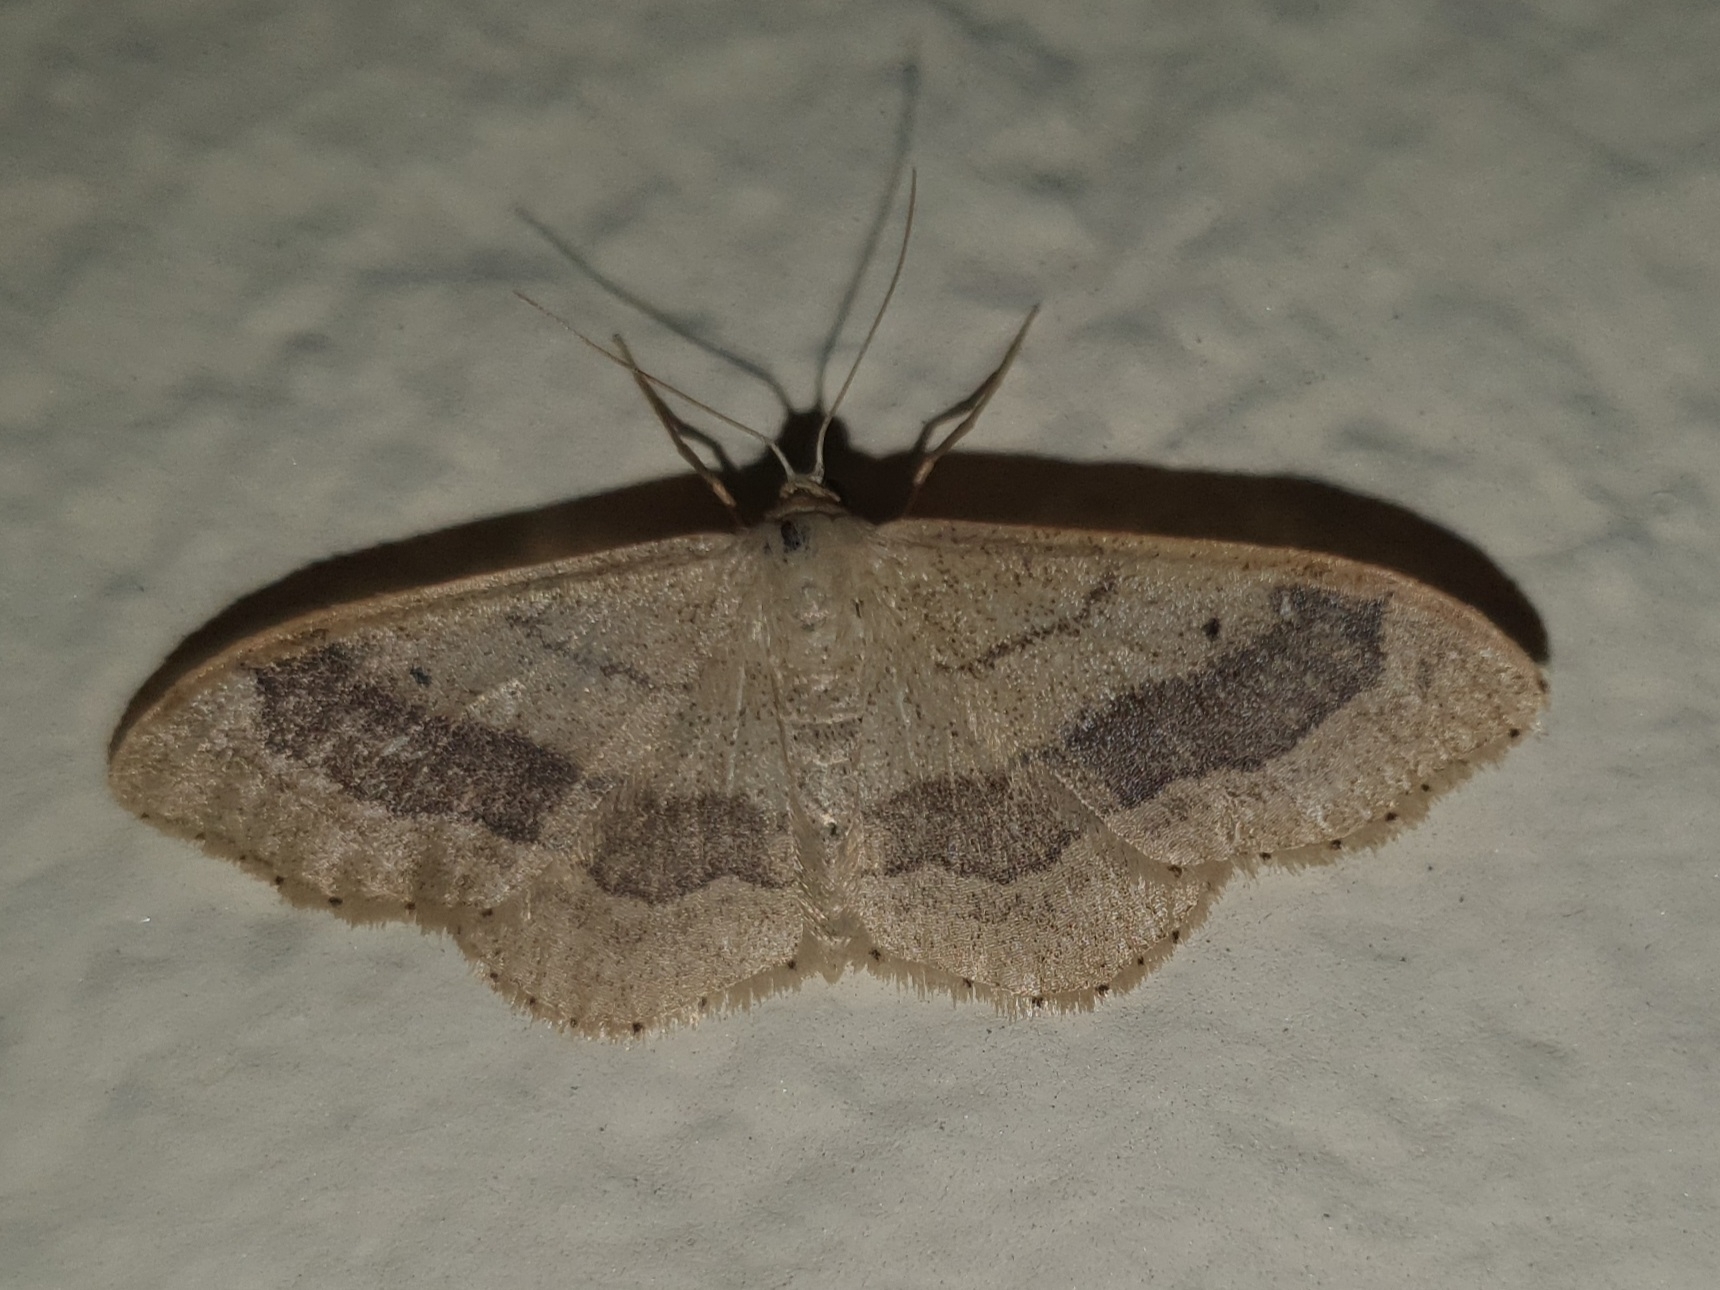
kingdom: Animalia
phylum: Arthropoda
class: Insecta
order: Lepidoptera
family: Geometridae
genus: Idaea
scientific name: Idaea aversata
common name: Riband wave
